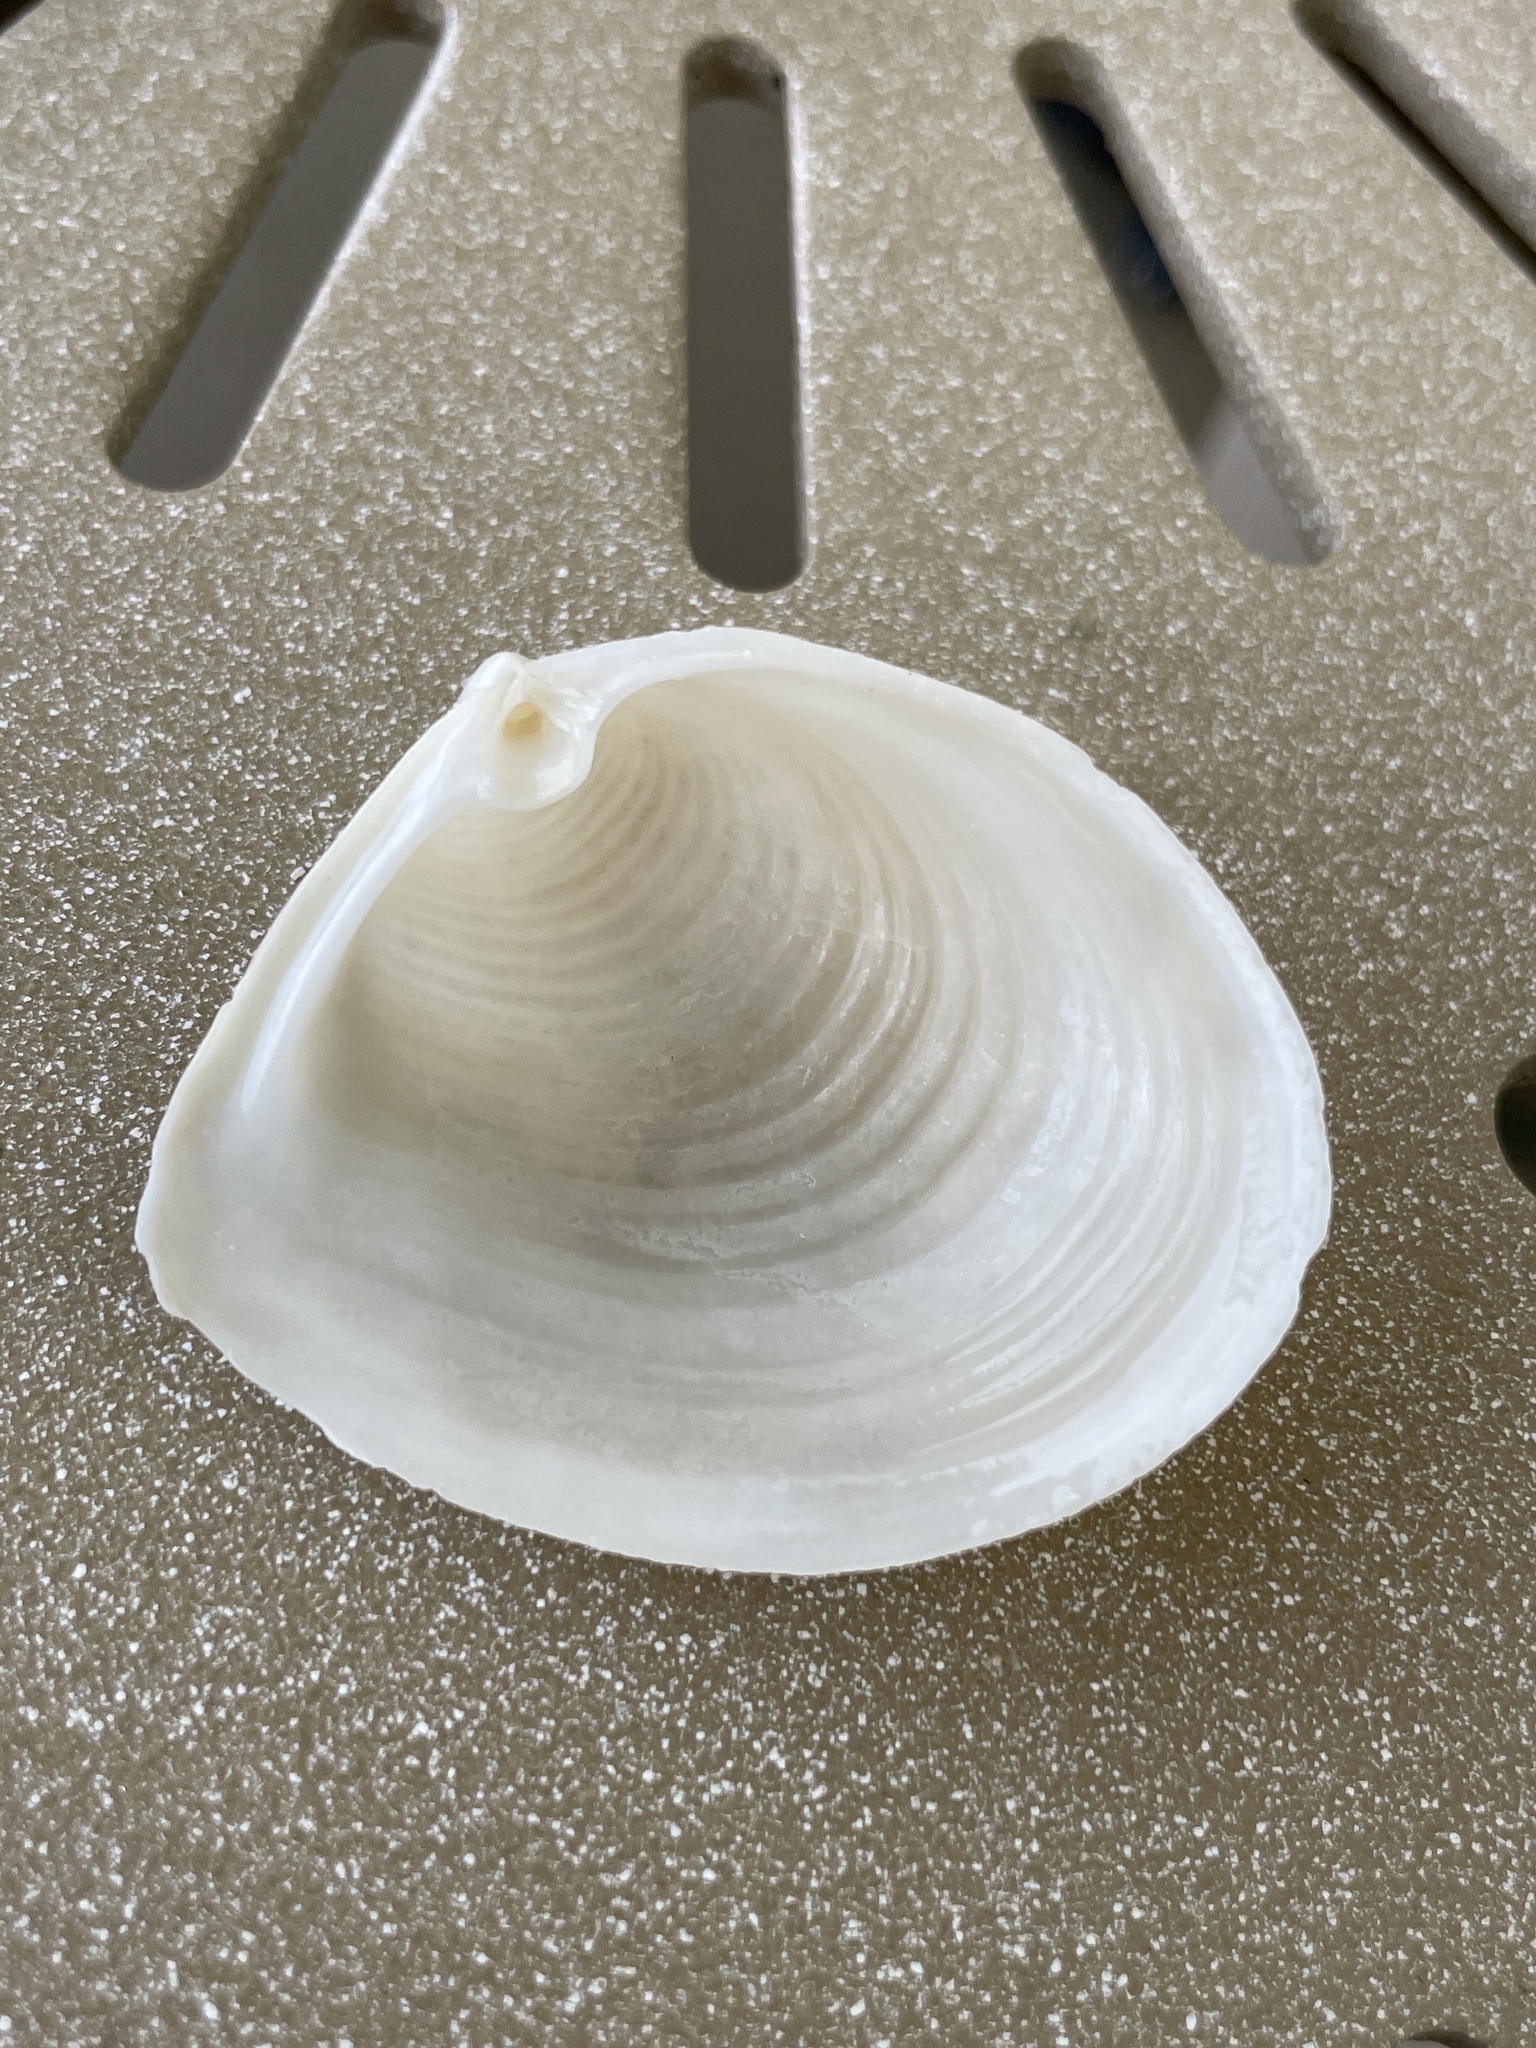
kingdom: Animalia
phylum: Mollusca
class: Bivalvia
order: Venerida
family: Anatinellidae
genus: Raeta
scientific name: Raeta plicatella
